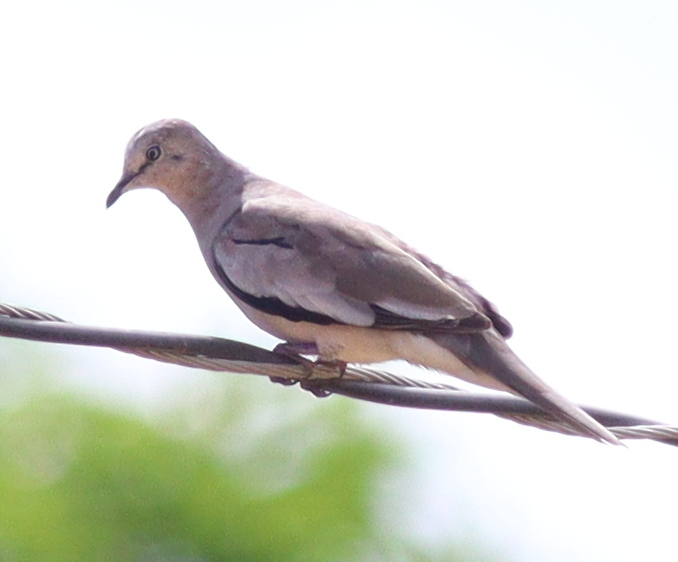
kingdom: Animalia
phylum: Chordata
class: Aves
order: Columbiformes
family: Columbidae
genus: Columbina
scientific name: Columbina picui
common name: Picui ground dove
